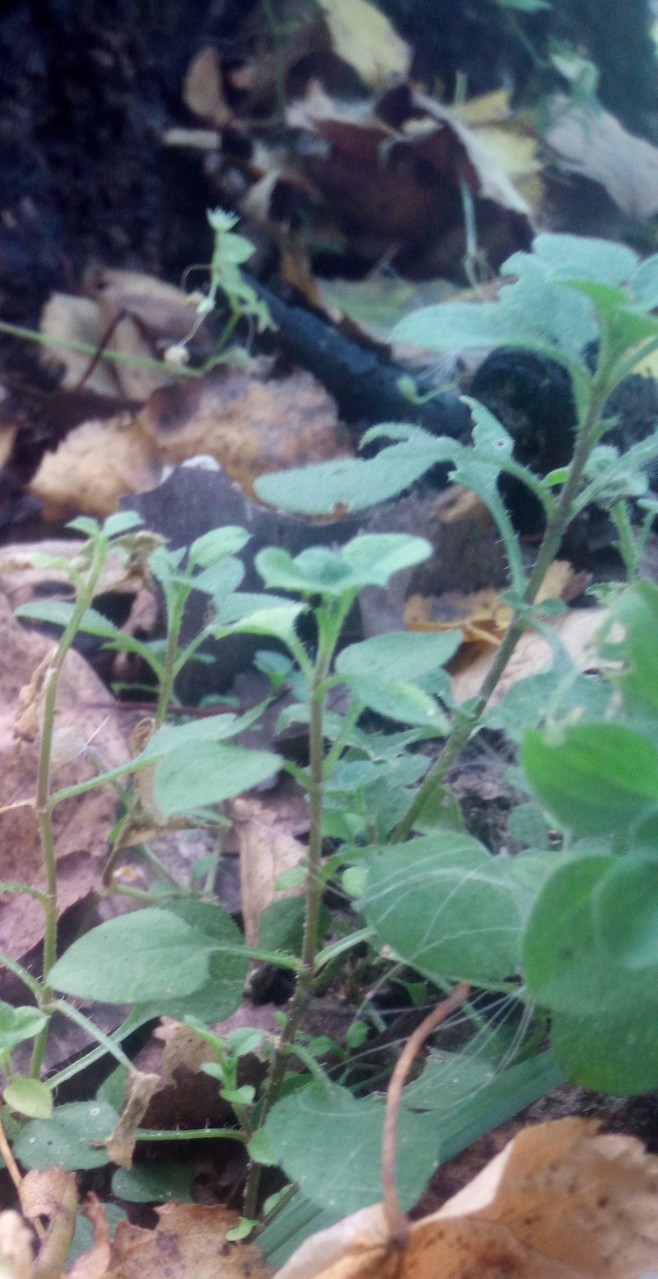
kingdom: Plantae
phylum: Tracheophyta
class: Magnoliopsida
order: Caryophyllales
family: Caryophyllaceae
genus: Moehringia
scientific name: Moehringia trinervia
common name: Three-nerved sandwort
